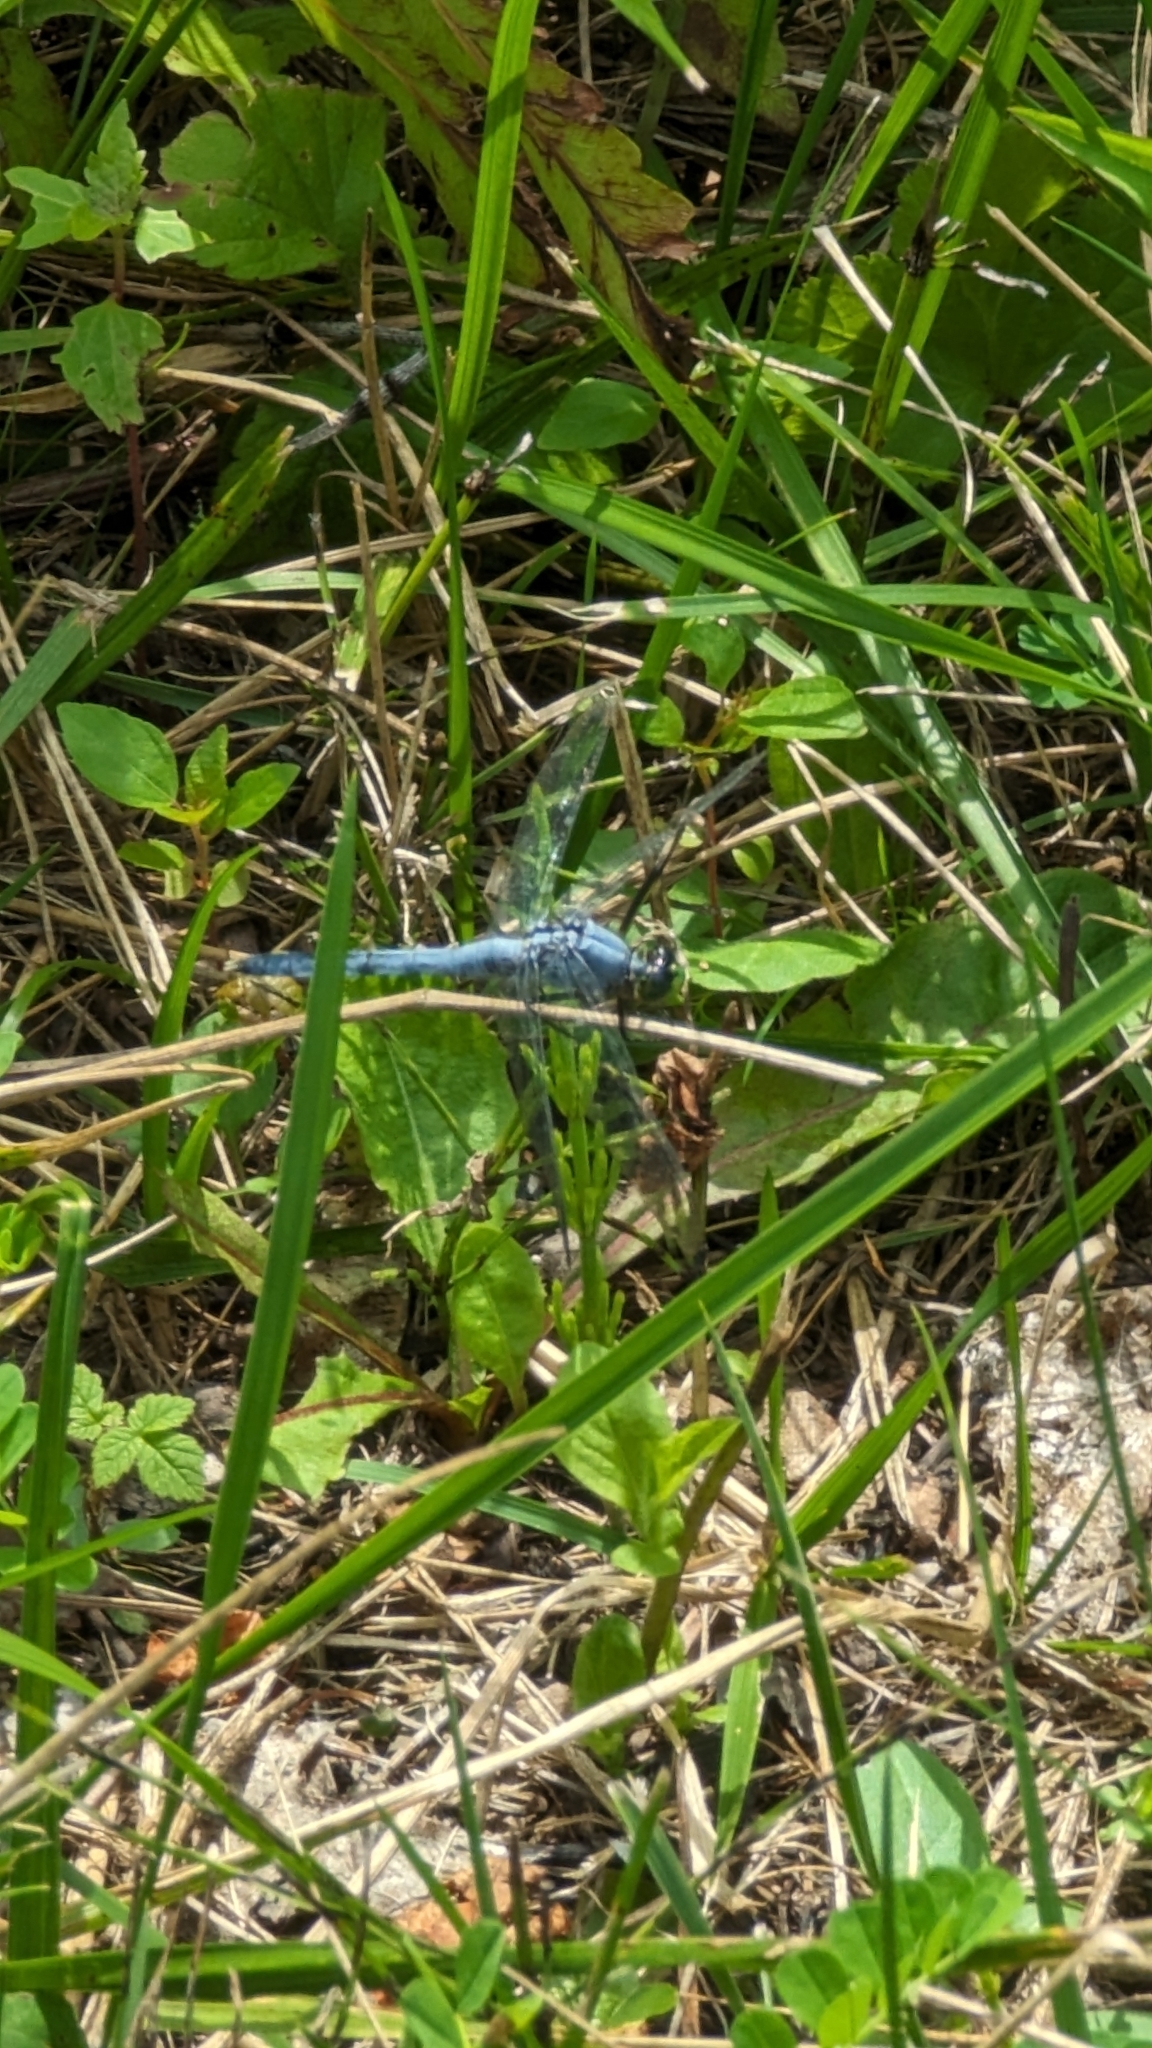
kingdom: Animalia
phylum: Arthropoda
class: Insecta
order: Odonata
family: Libellulidae
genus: Erythemis
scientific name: Erythemis simplicicollis
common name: Eastern pondhawk
